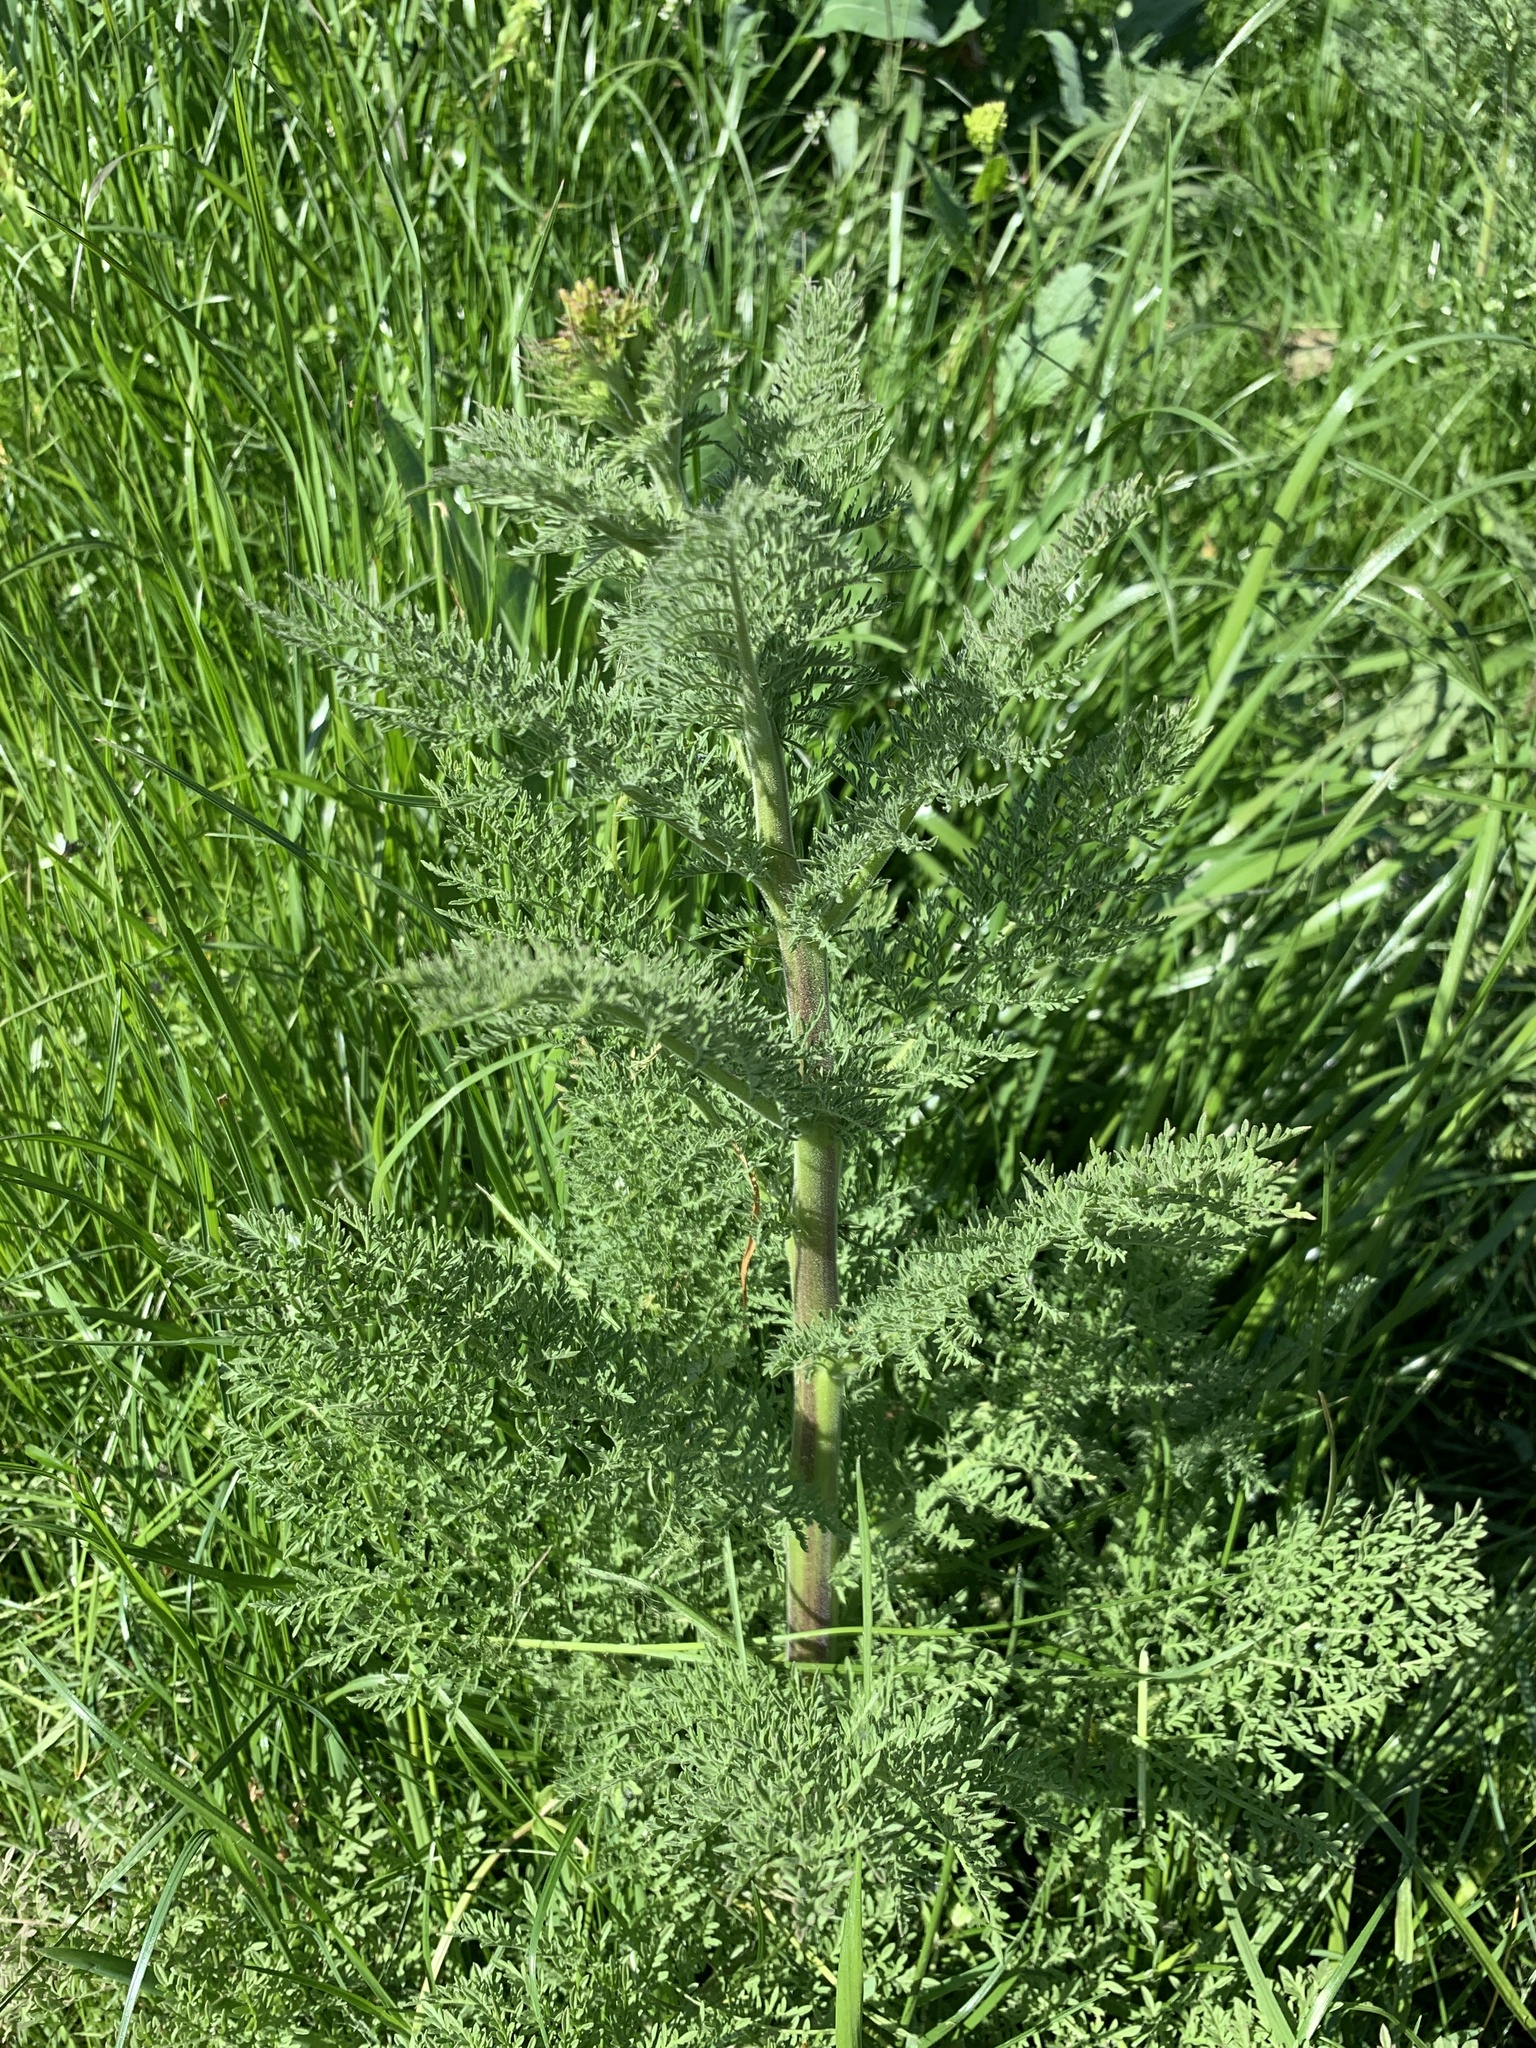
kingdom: Plantae
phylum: Tracheophyta
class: Magnoliopsida
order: Brassicales
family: Brassicaceae
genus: Descurainia
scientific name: Descurainia sophia
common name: Flixweed
